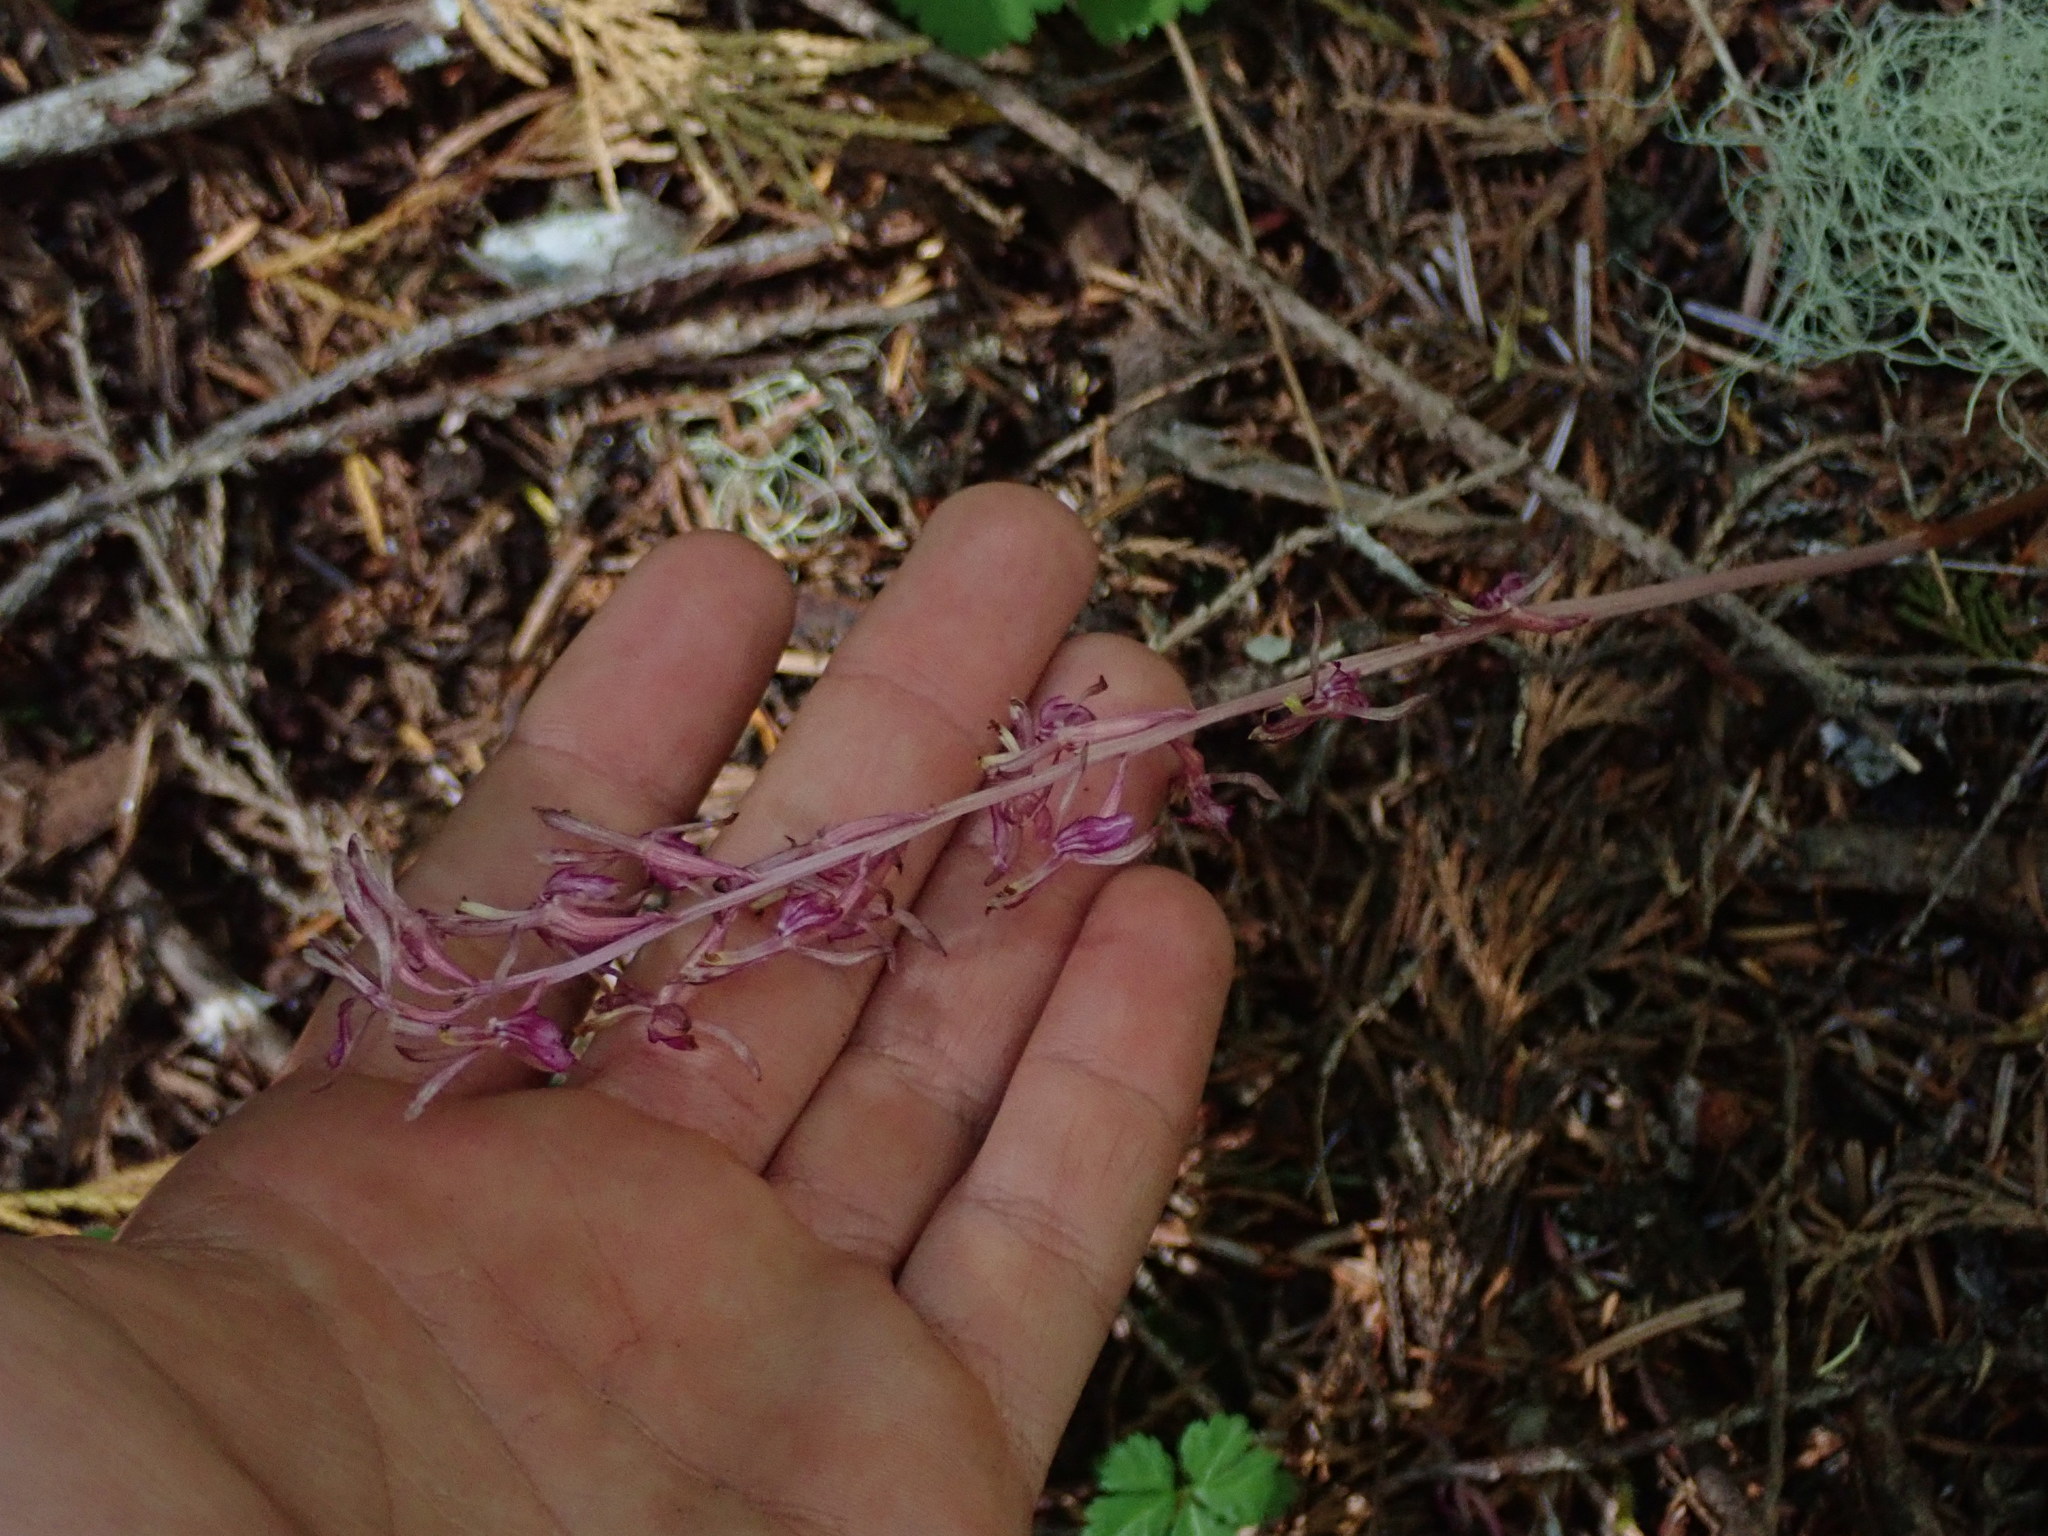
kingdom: Plantae
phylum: Tracheophyta
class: Liliopsida
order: Asparagales
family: Orchidaceae
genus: Corallorhiza
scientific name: Corallorhiza mertensiana
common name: Pacific coralroot
